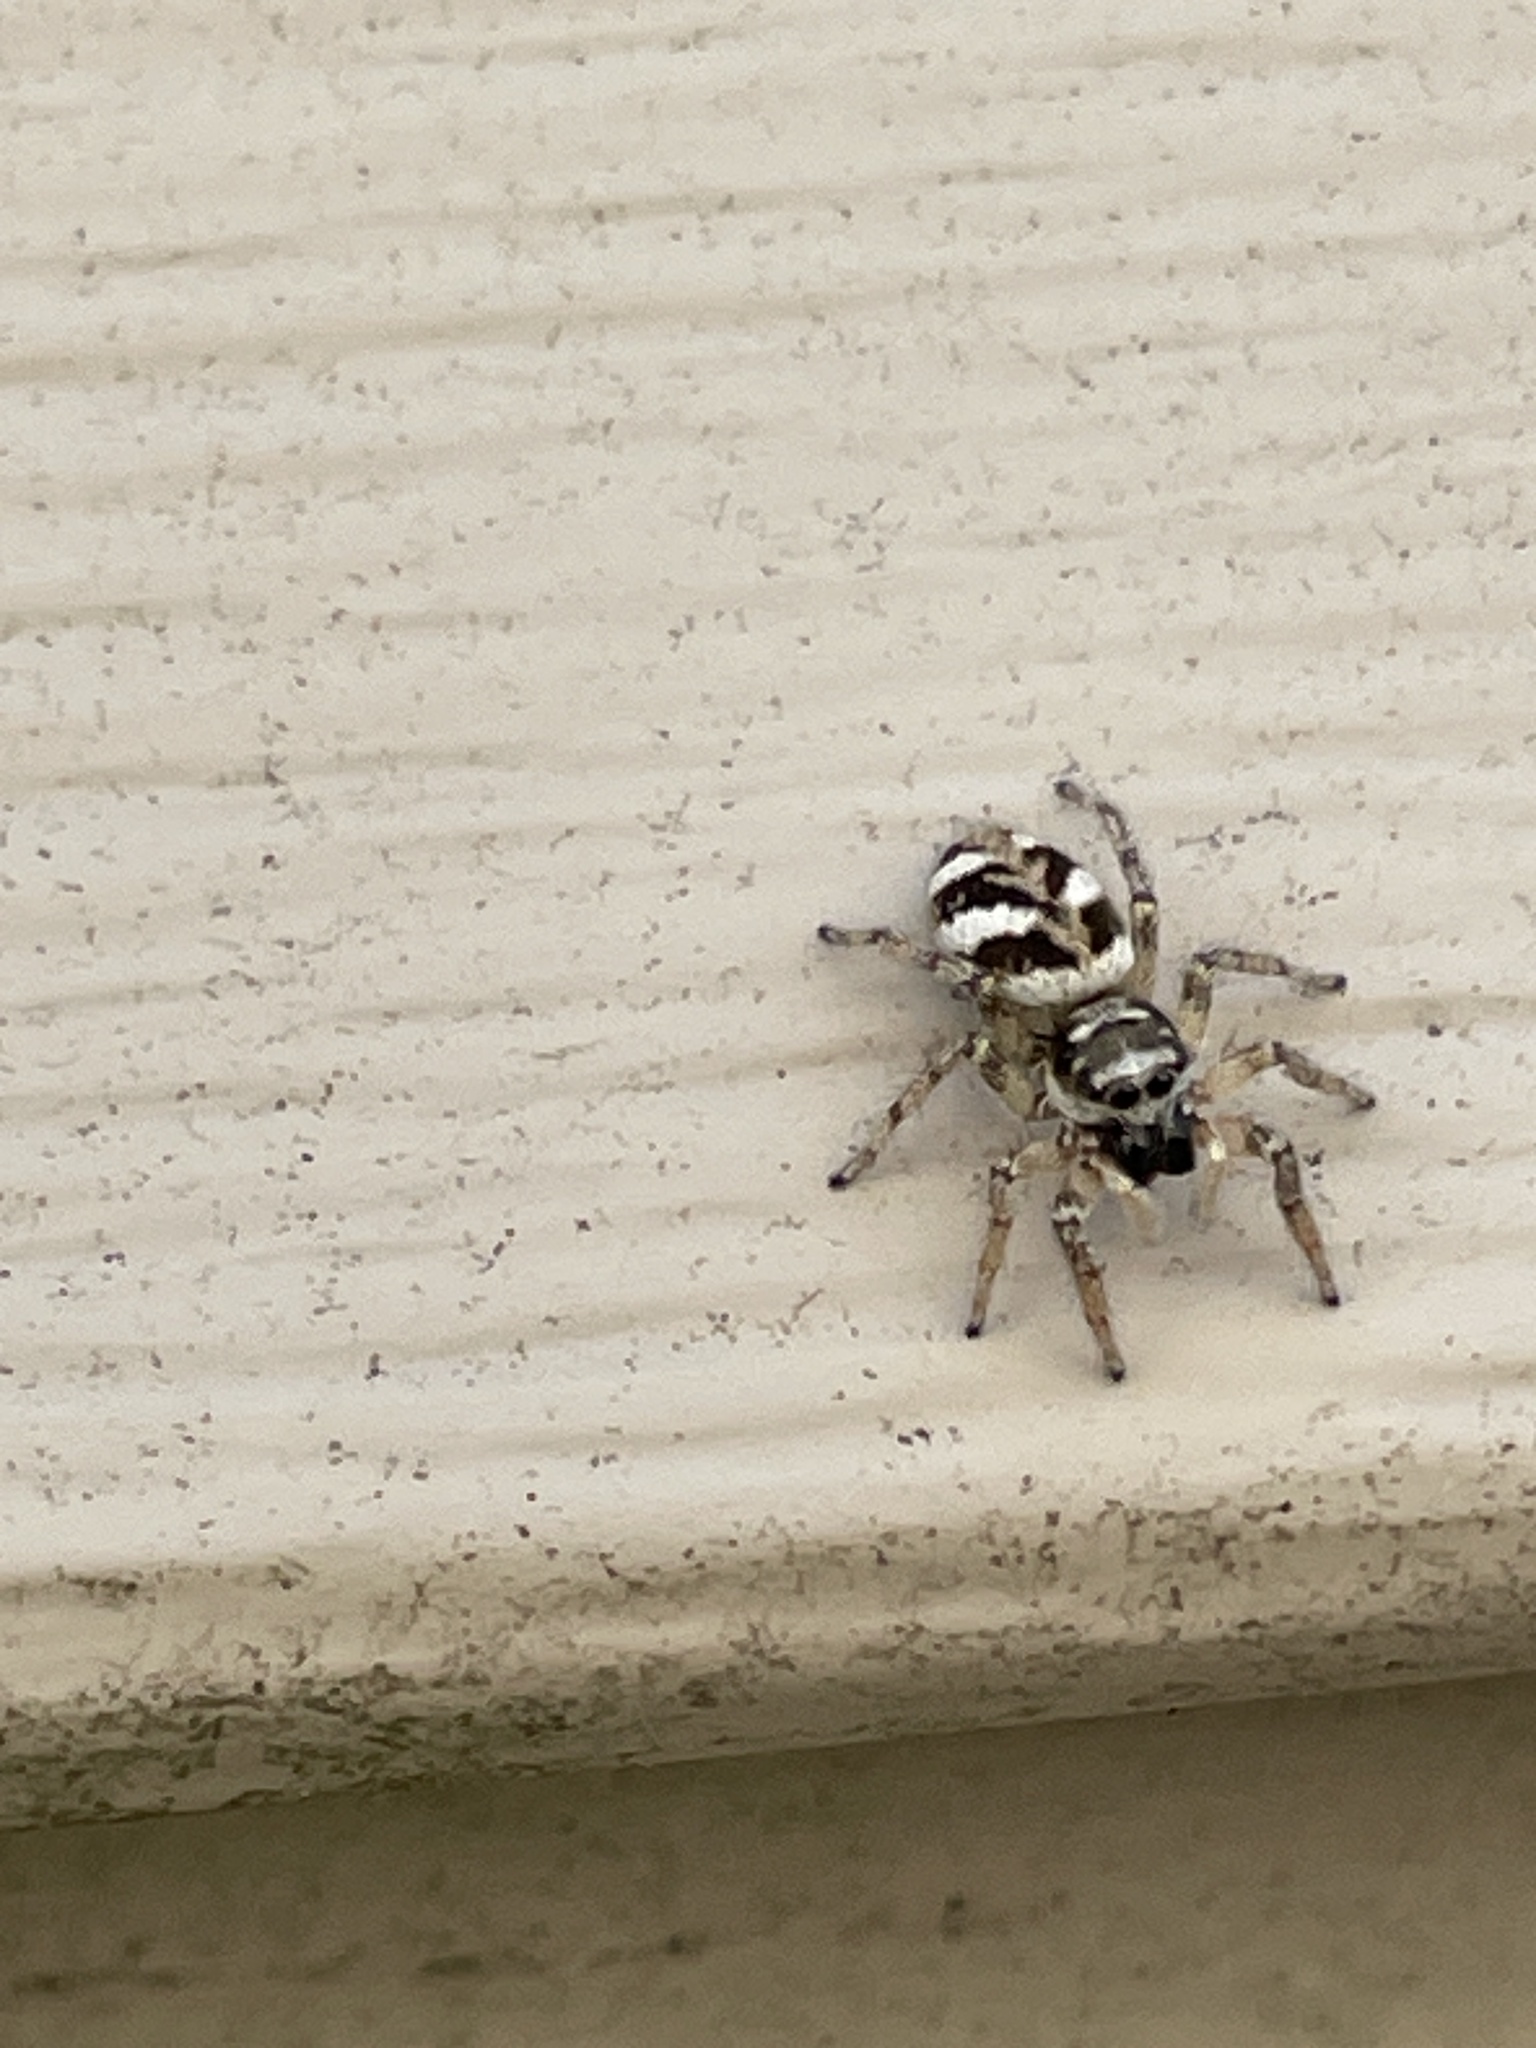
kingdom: Animalia
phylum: Arthropoda
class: Arachnida
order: Araneae
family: Salticidae
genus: Salticus
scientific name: Salticus scenicus
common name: Zebra jumper
